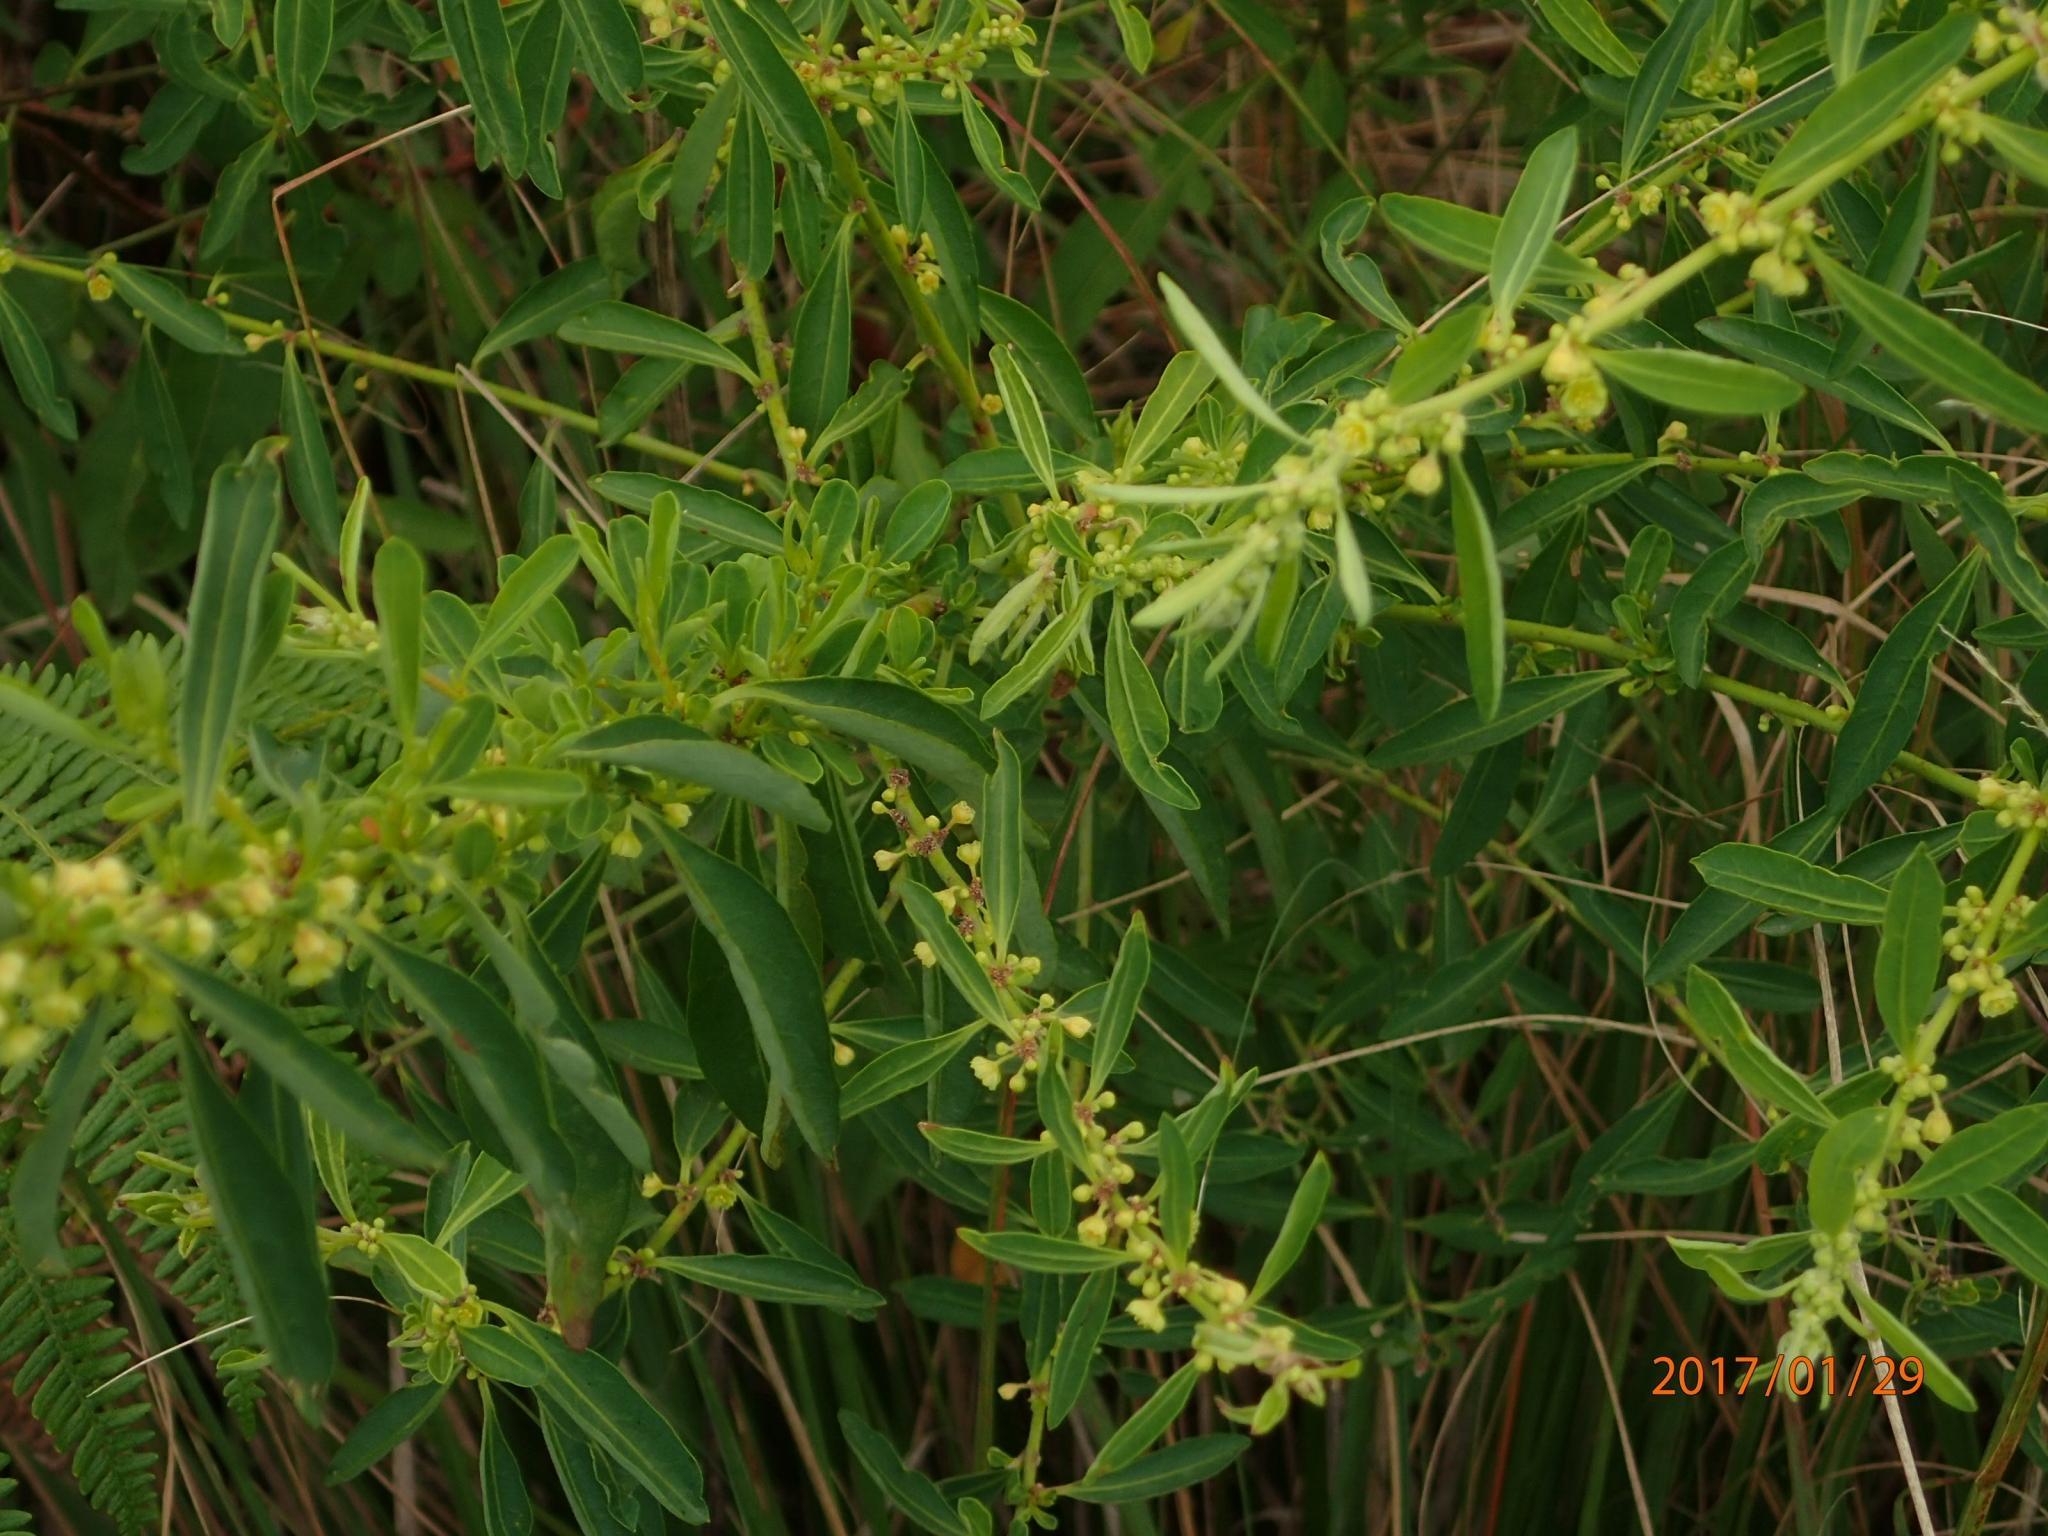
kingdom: Plantae
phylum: Tracheophyta
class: Magnoliopsida
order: Malpighiales
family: Peraceae
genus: Clutia
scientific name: Clutia hirsuta
